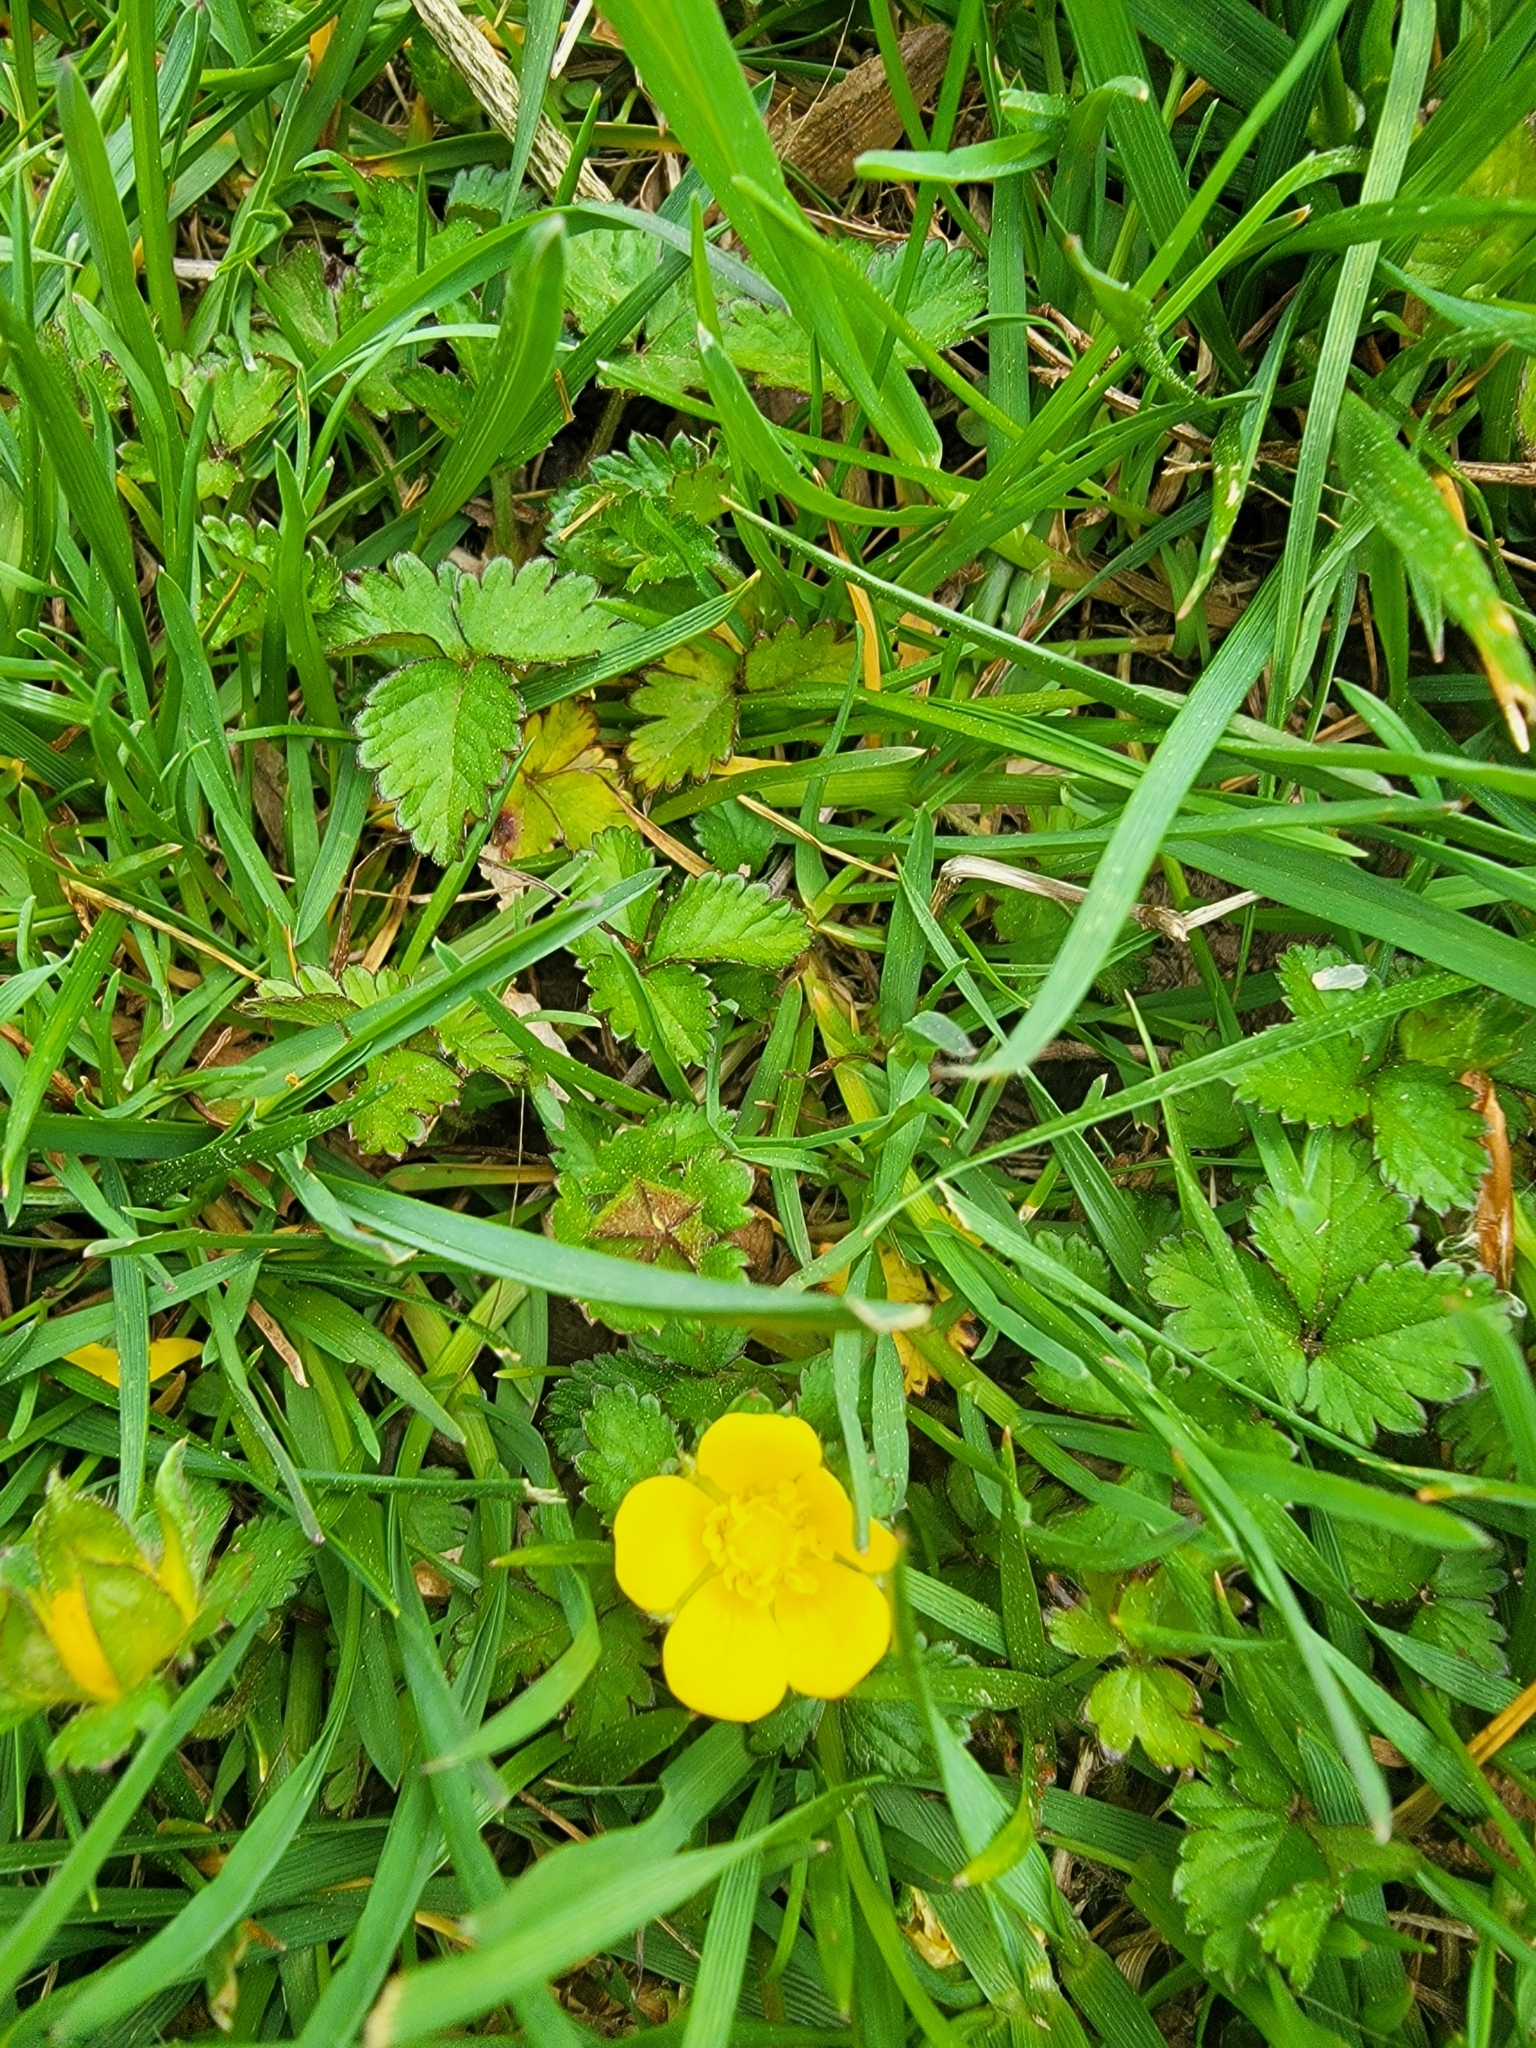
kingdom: Plantae
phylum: Tracheophyta
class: Magnoliopsida
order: Rosales
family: Rosaceae
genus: Potentilla
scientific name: Potentilla indica
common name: Yellow-flowered strawberry
